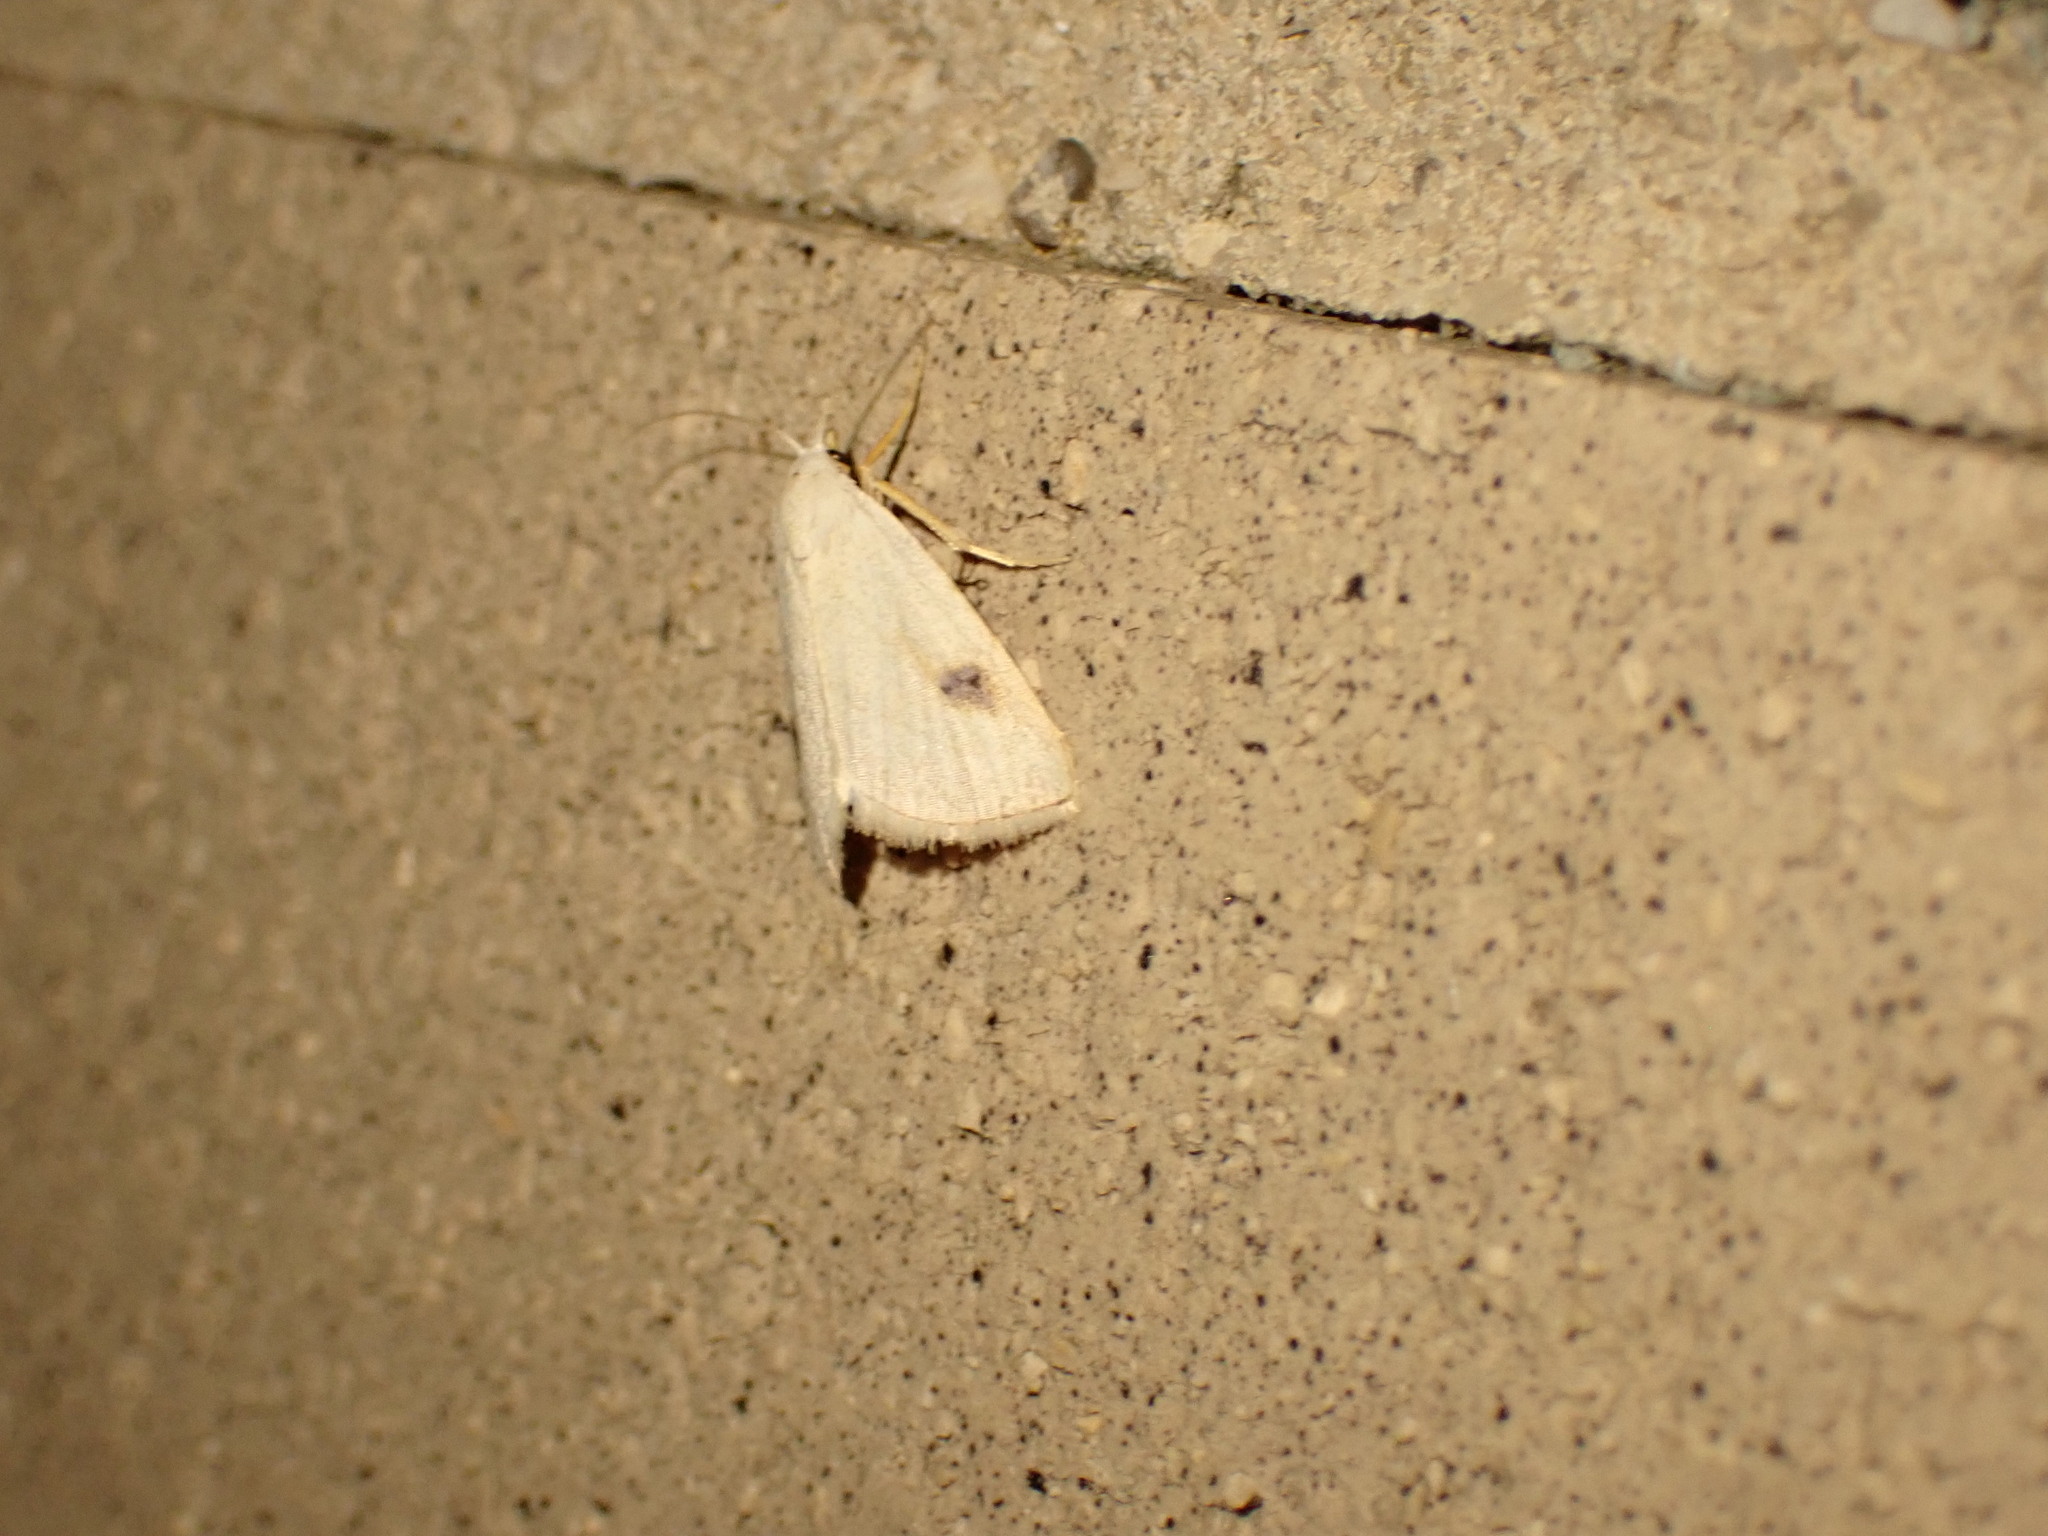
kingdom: Animalia
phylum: Arthropoda
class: Insecta
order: Lepidoptera
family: Erebidae
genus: Rivula
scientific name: Rivula propinqualis
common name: Spotted grass moth
